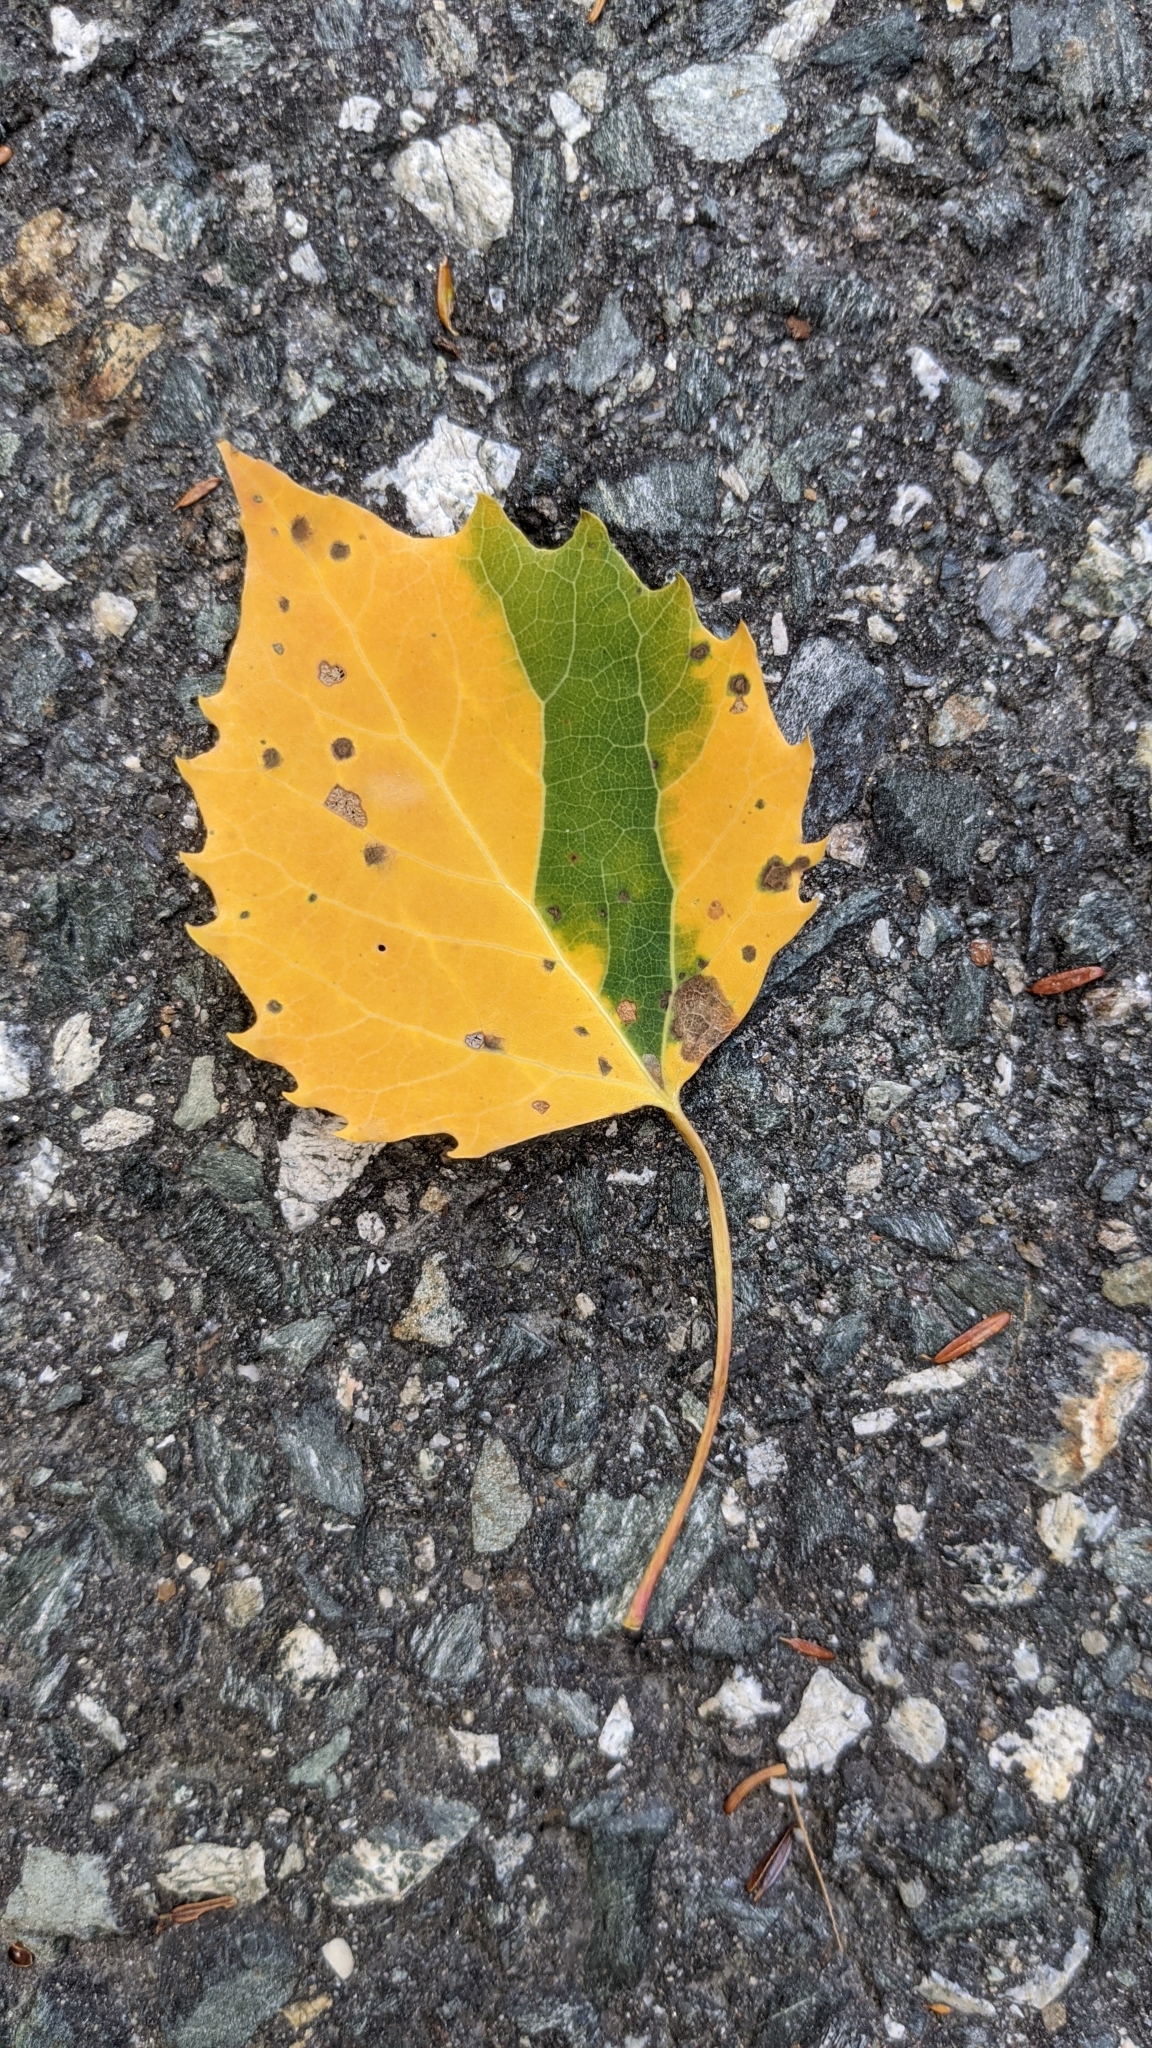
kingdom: Plantae
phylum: Tracheophyta
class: Magnoliopsida
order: Malpighiales
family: Salicaceae
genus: Populus
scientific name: Populus grandidentata
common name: Bigtooth aspen
